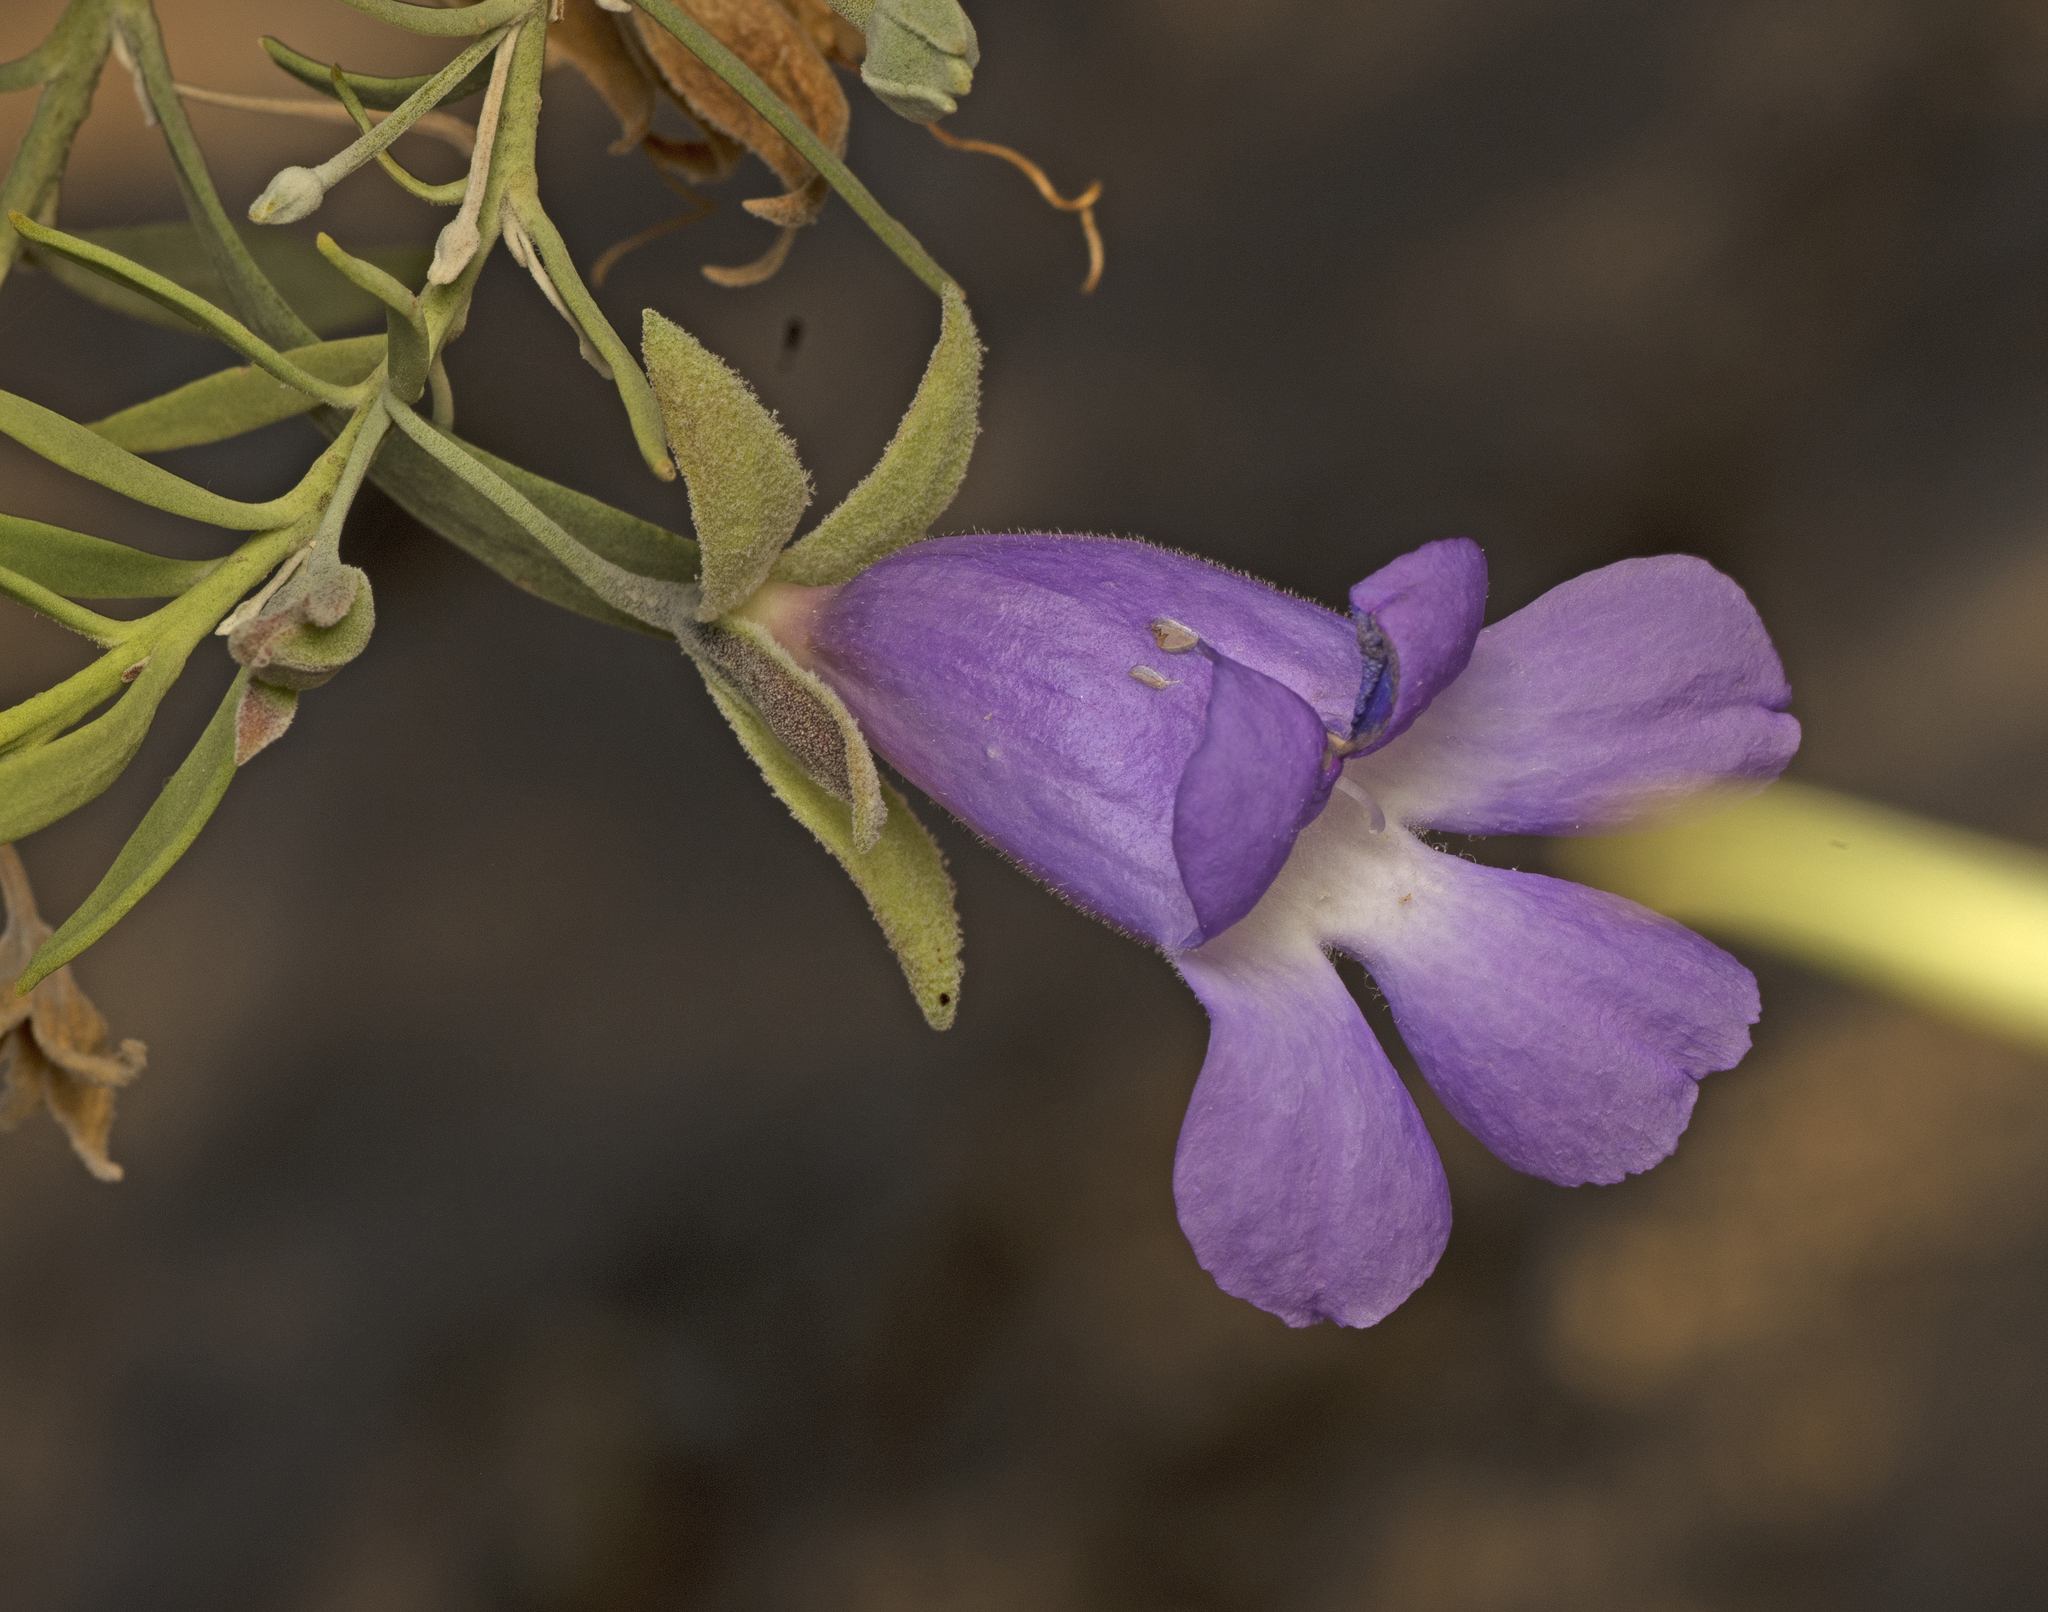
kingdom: Plantae
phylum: Tracheophyta
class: Magnoliopsida
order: Lamiales
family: Scrophulariaceae
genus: Eremophila
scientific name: Eremophila gilesii
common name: Desert fuchsia
